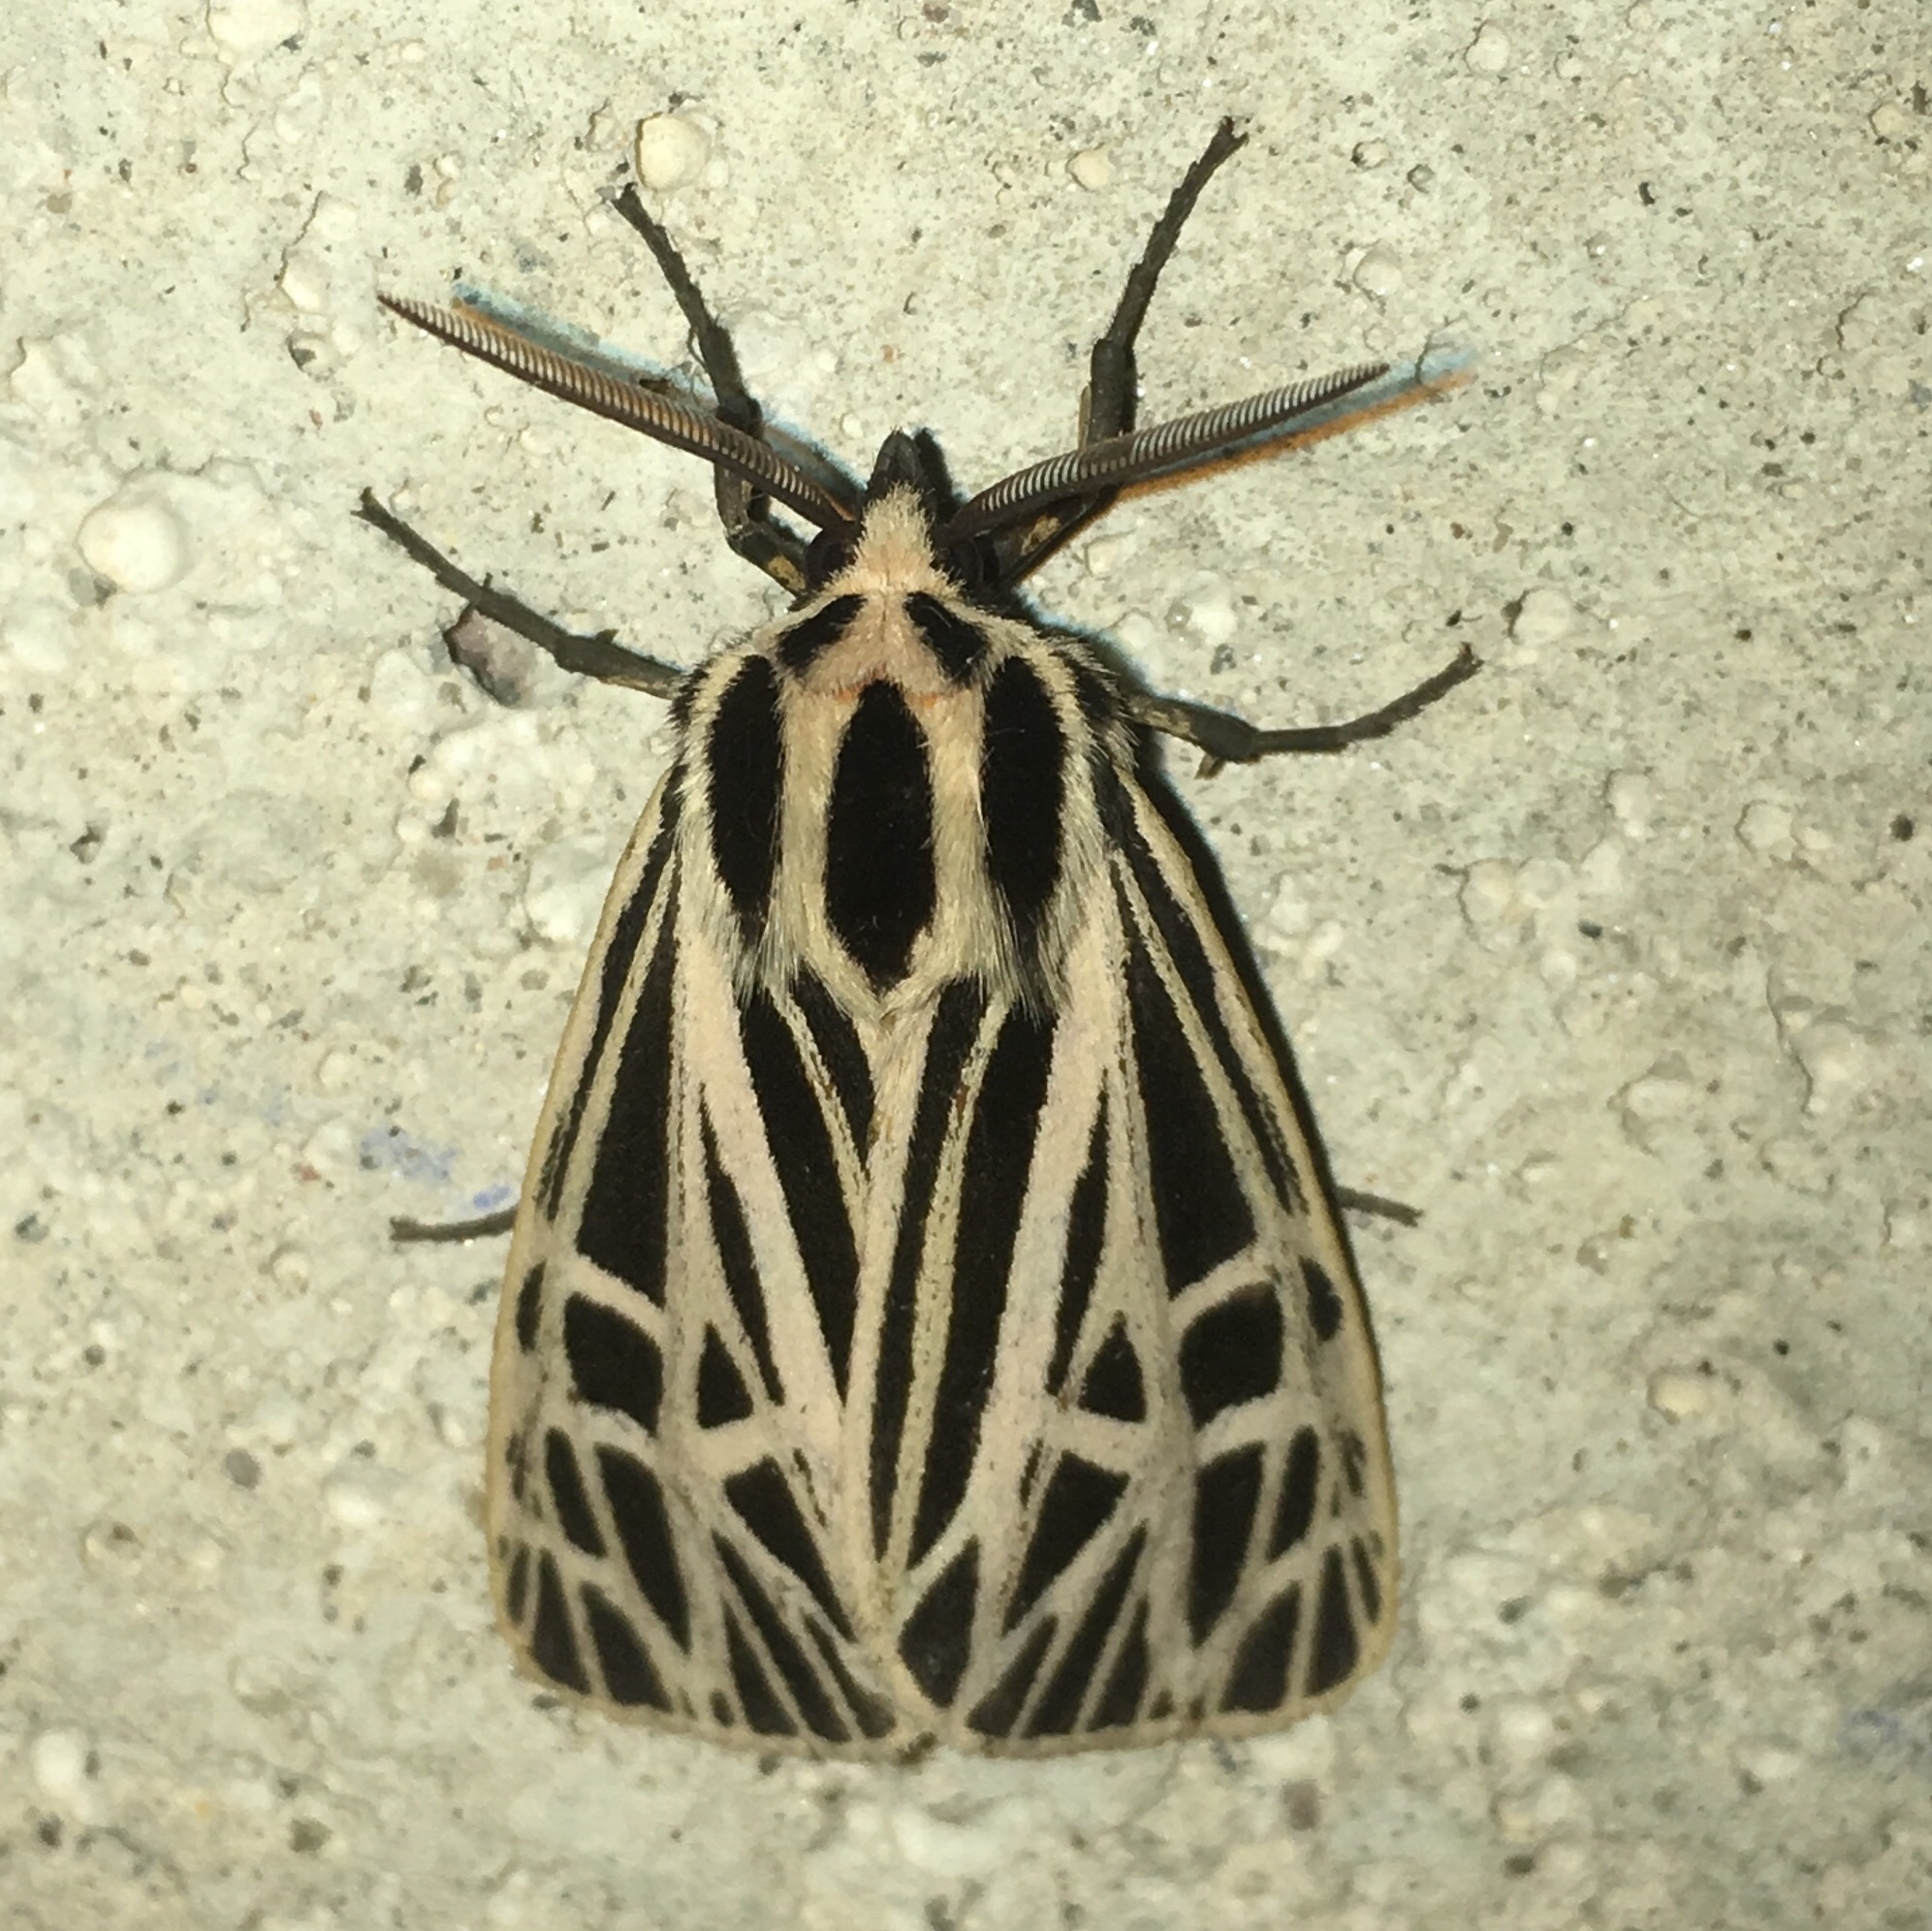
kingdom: Animalia
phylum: Arthropoda
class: Insecta
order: Lepidoptera
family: Erebidae
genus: Grammia
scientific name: Grammia virgo
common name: Virgin tiger moth
